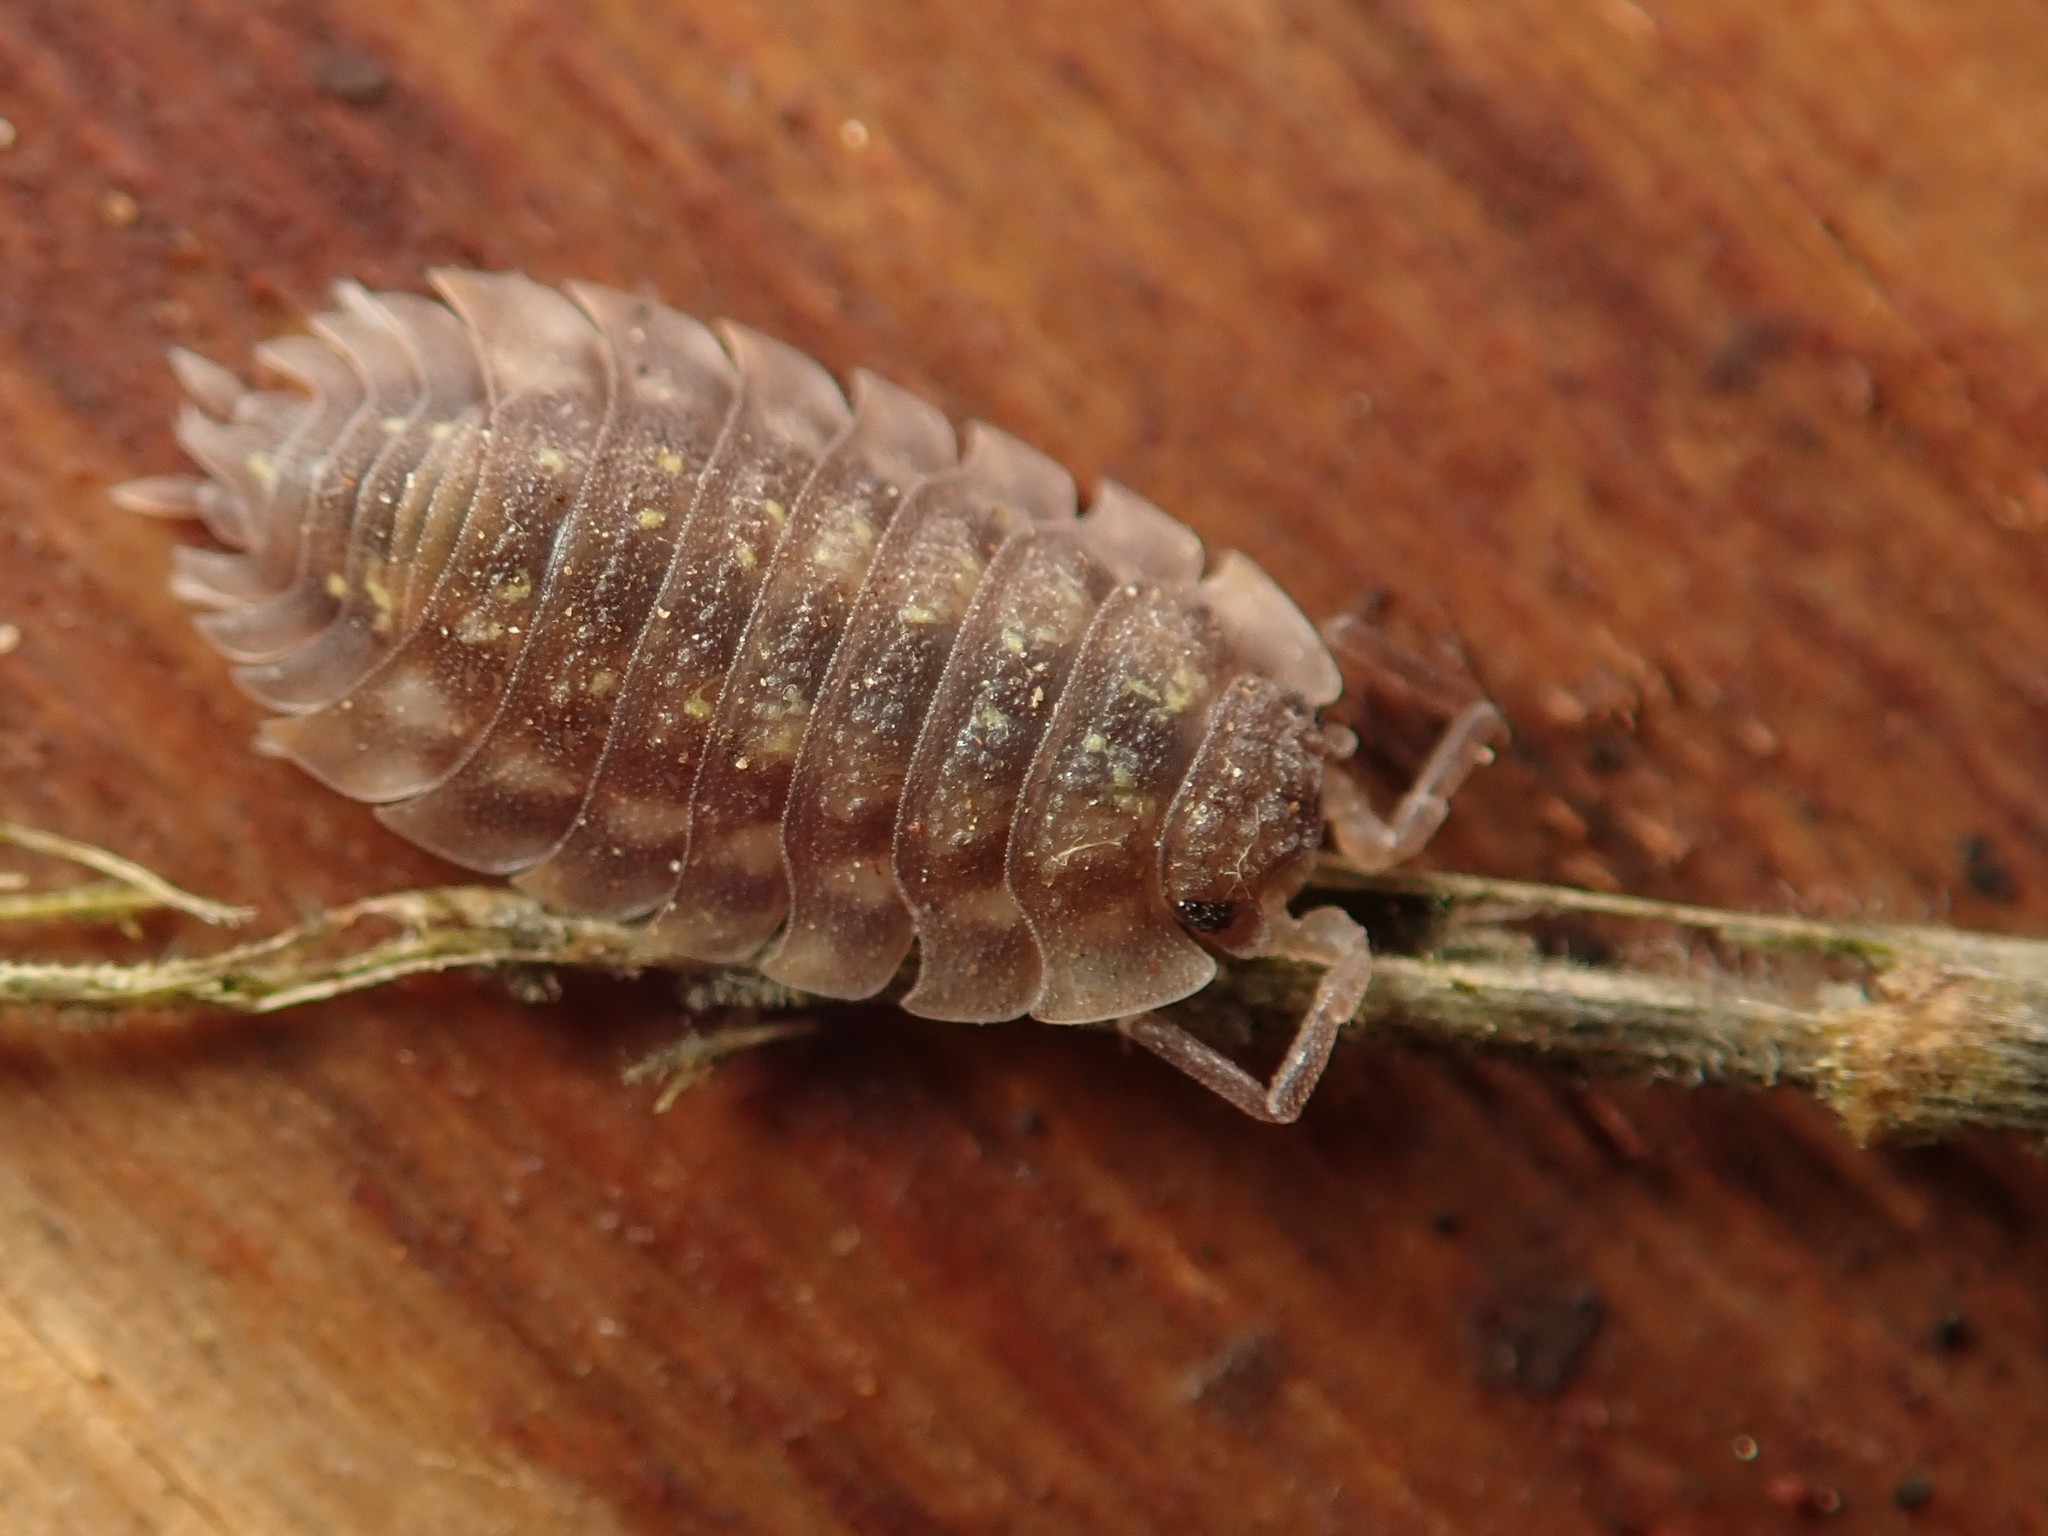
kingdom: Animalia
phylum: Arthropoda
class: Malacostraca
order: Isopoda
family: Oniscidae
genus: Oniscus
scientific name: Oniscus asellus
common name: Common shiny woodlouse
